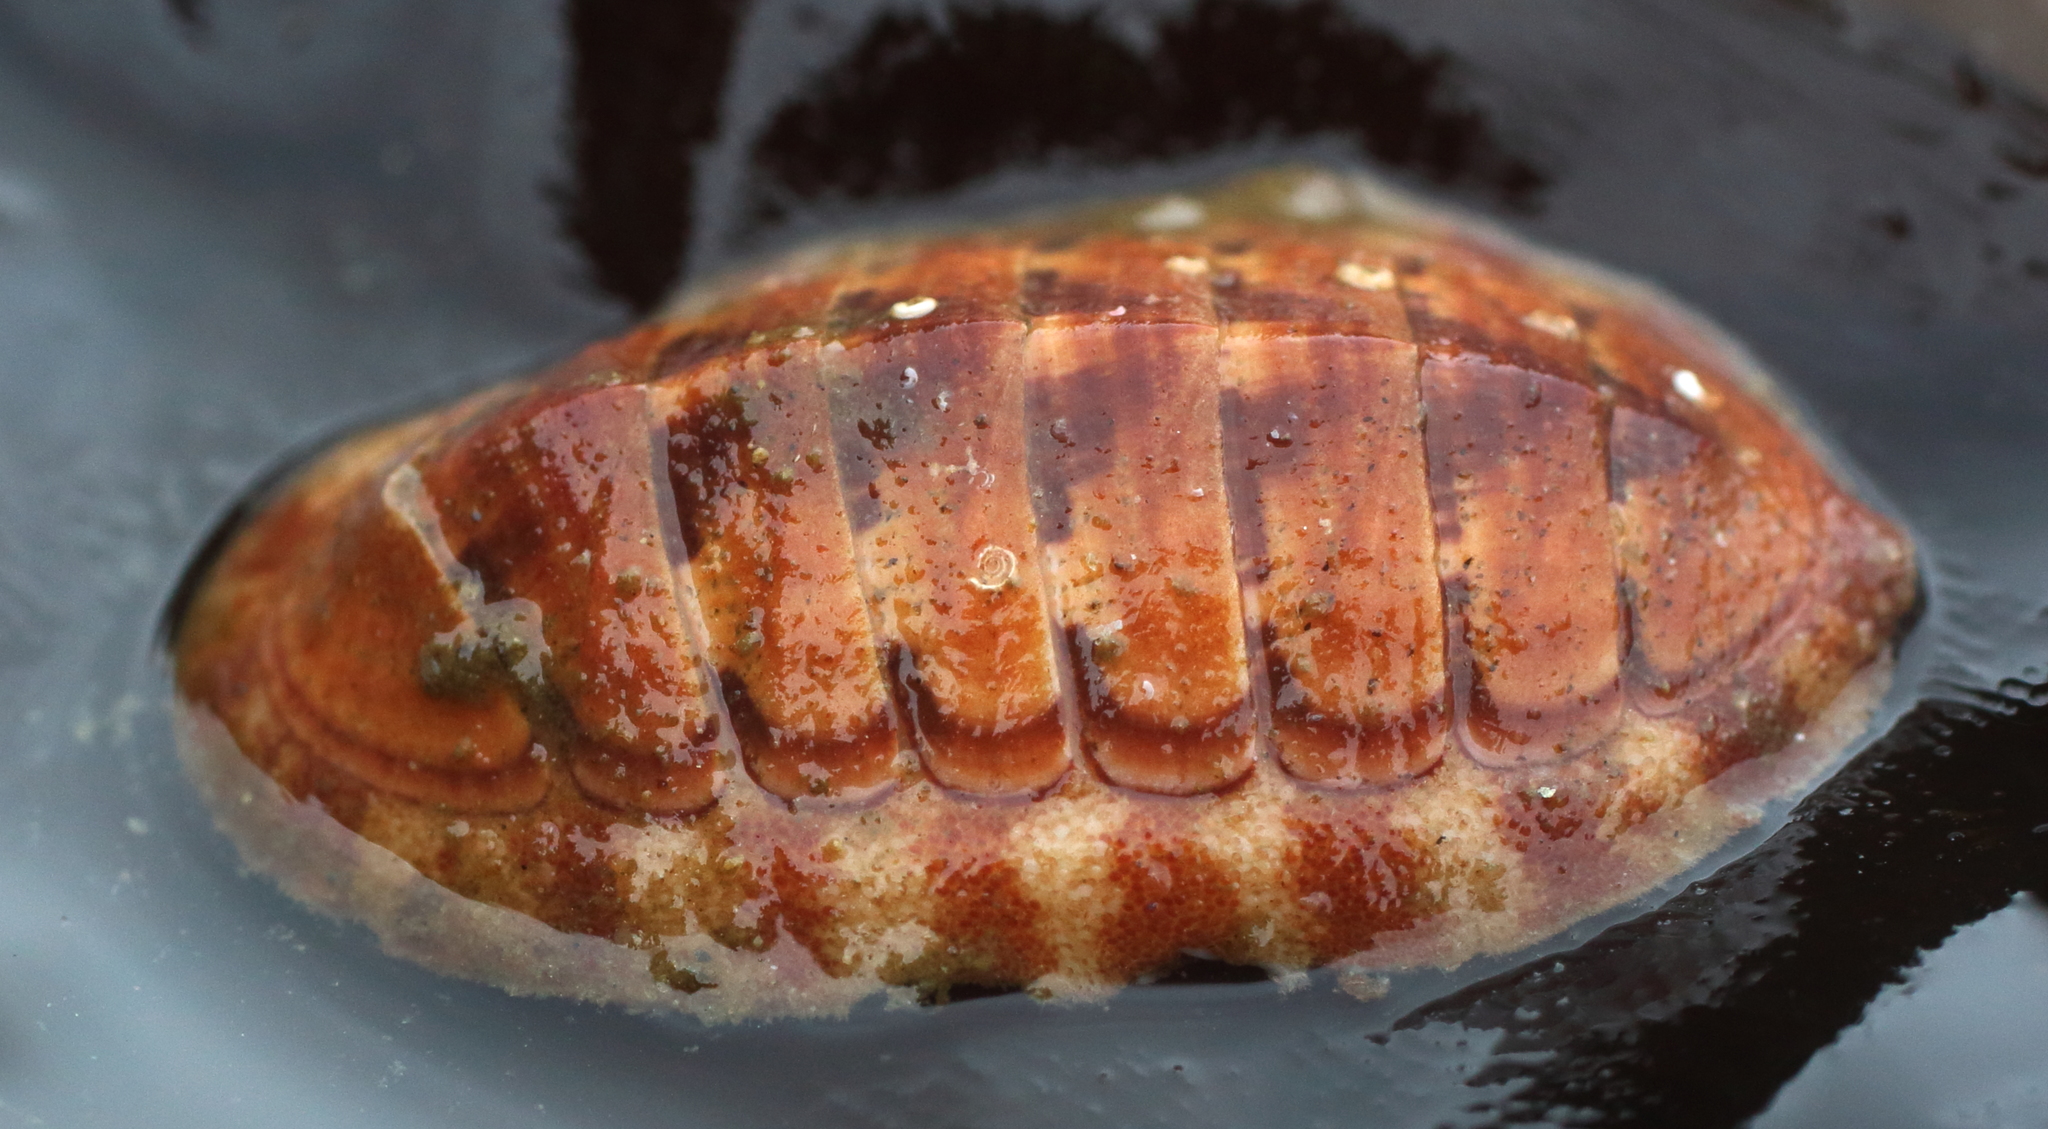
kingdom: Animalia
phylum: Mollusca
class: Polyplacophora
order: Chitonida
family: Ischnochitonidae
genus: Tripoplax
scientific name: Tripoplax trifida
